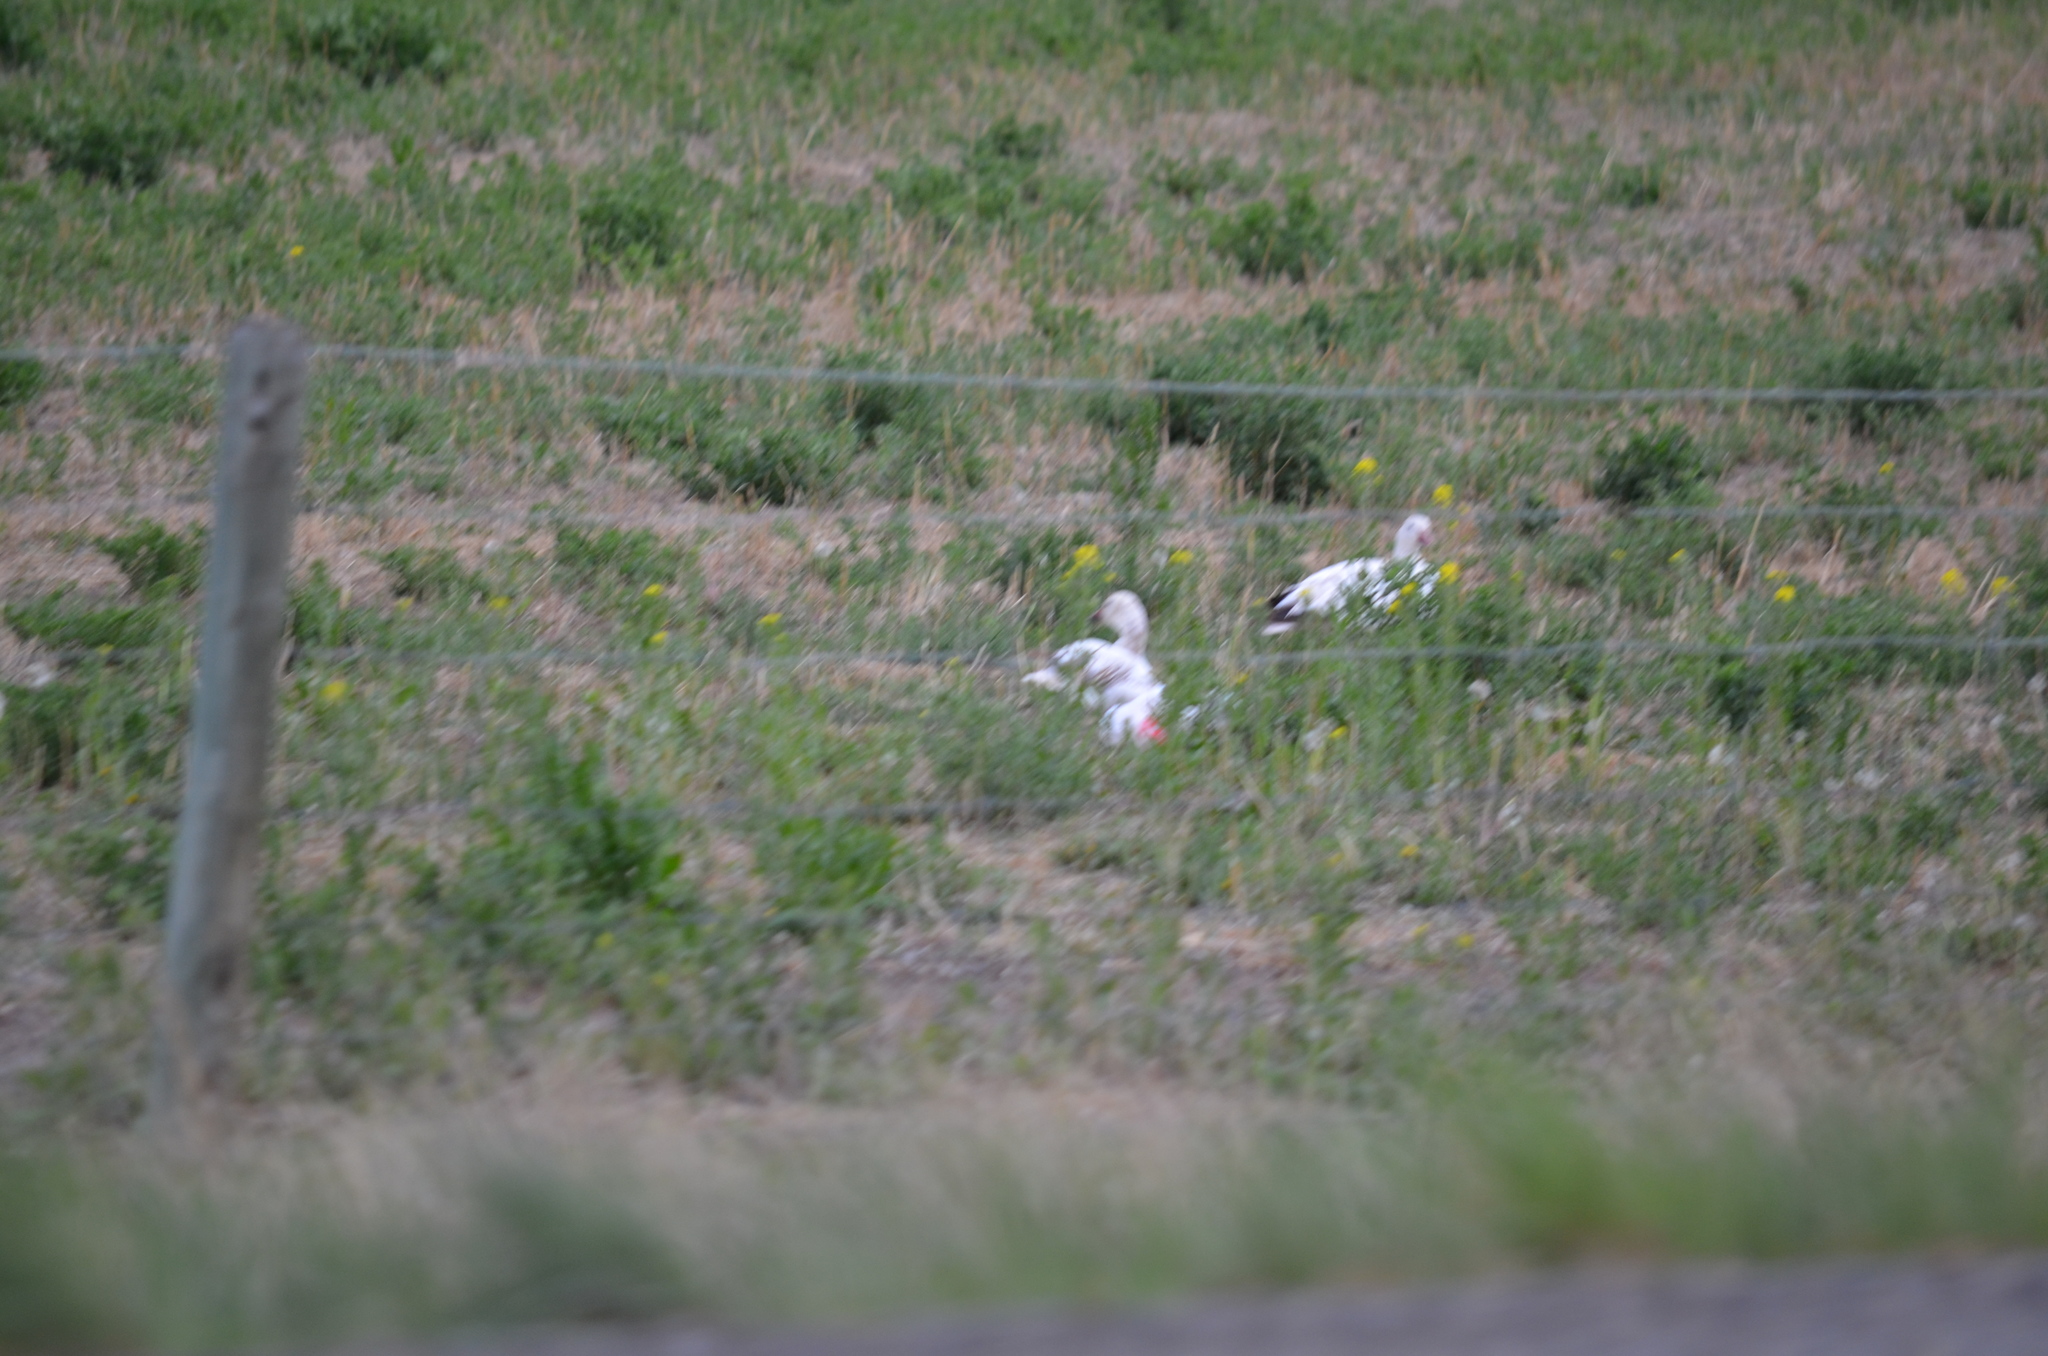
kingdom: Animalia
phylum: Chordata
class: Aves
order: Anseriformes
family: Anatidae
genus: Anser
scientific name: Anser caerulescens
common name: Snow goose
